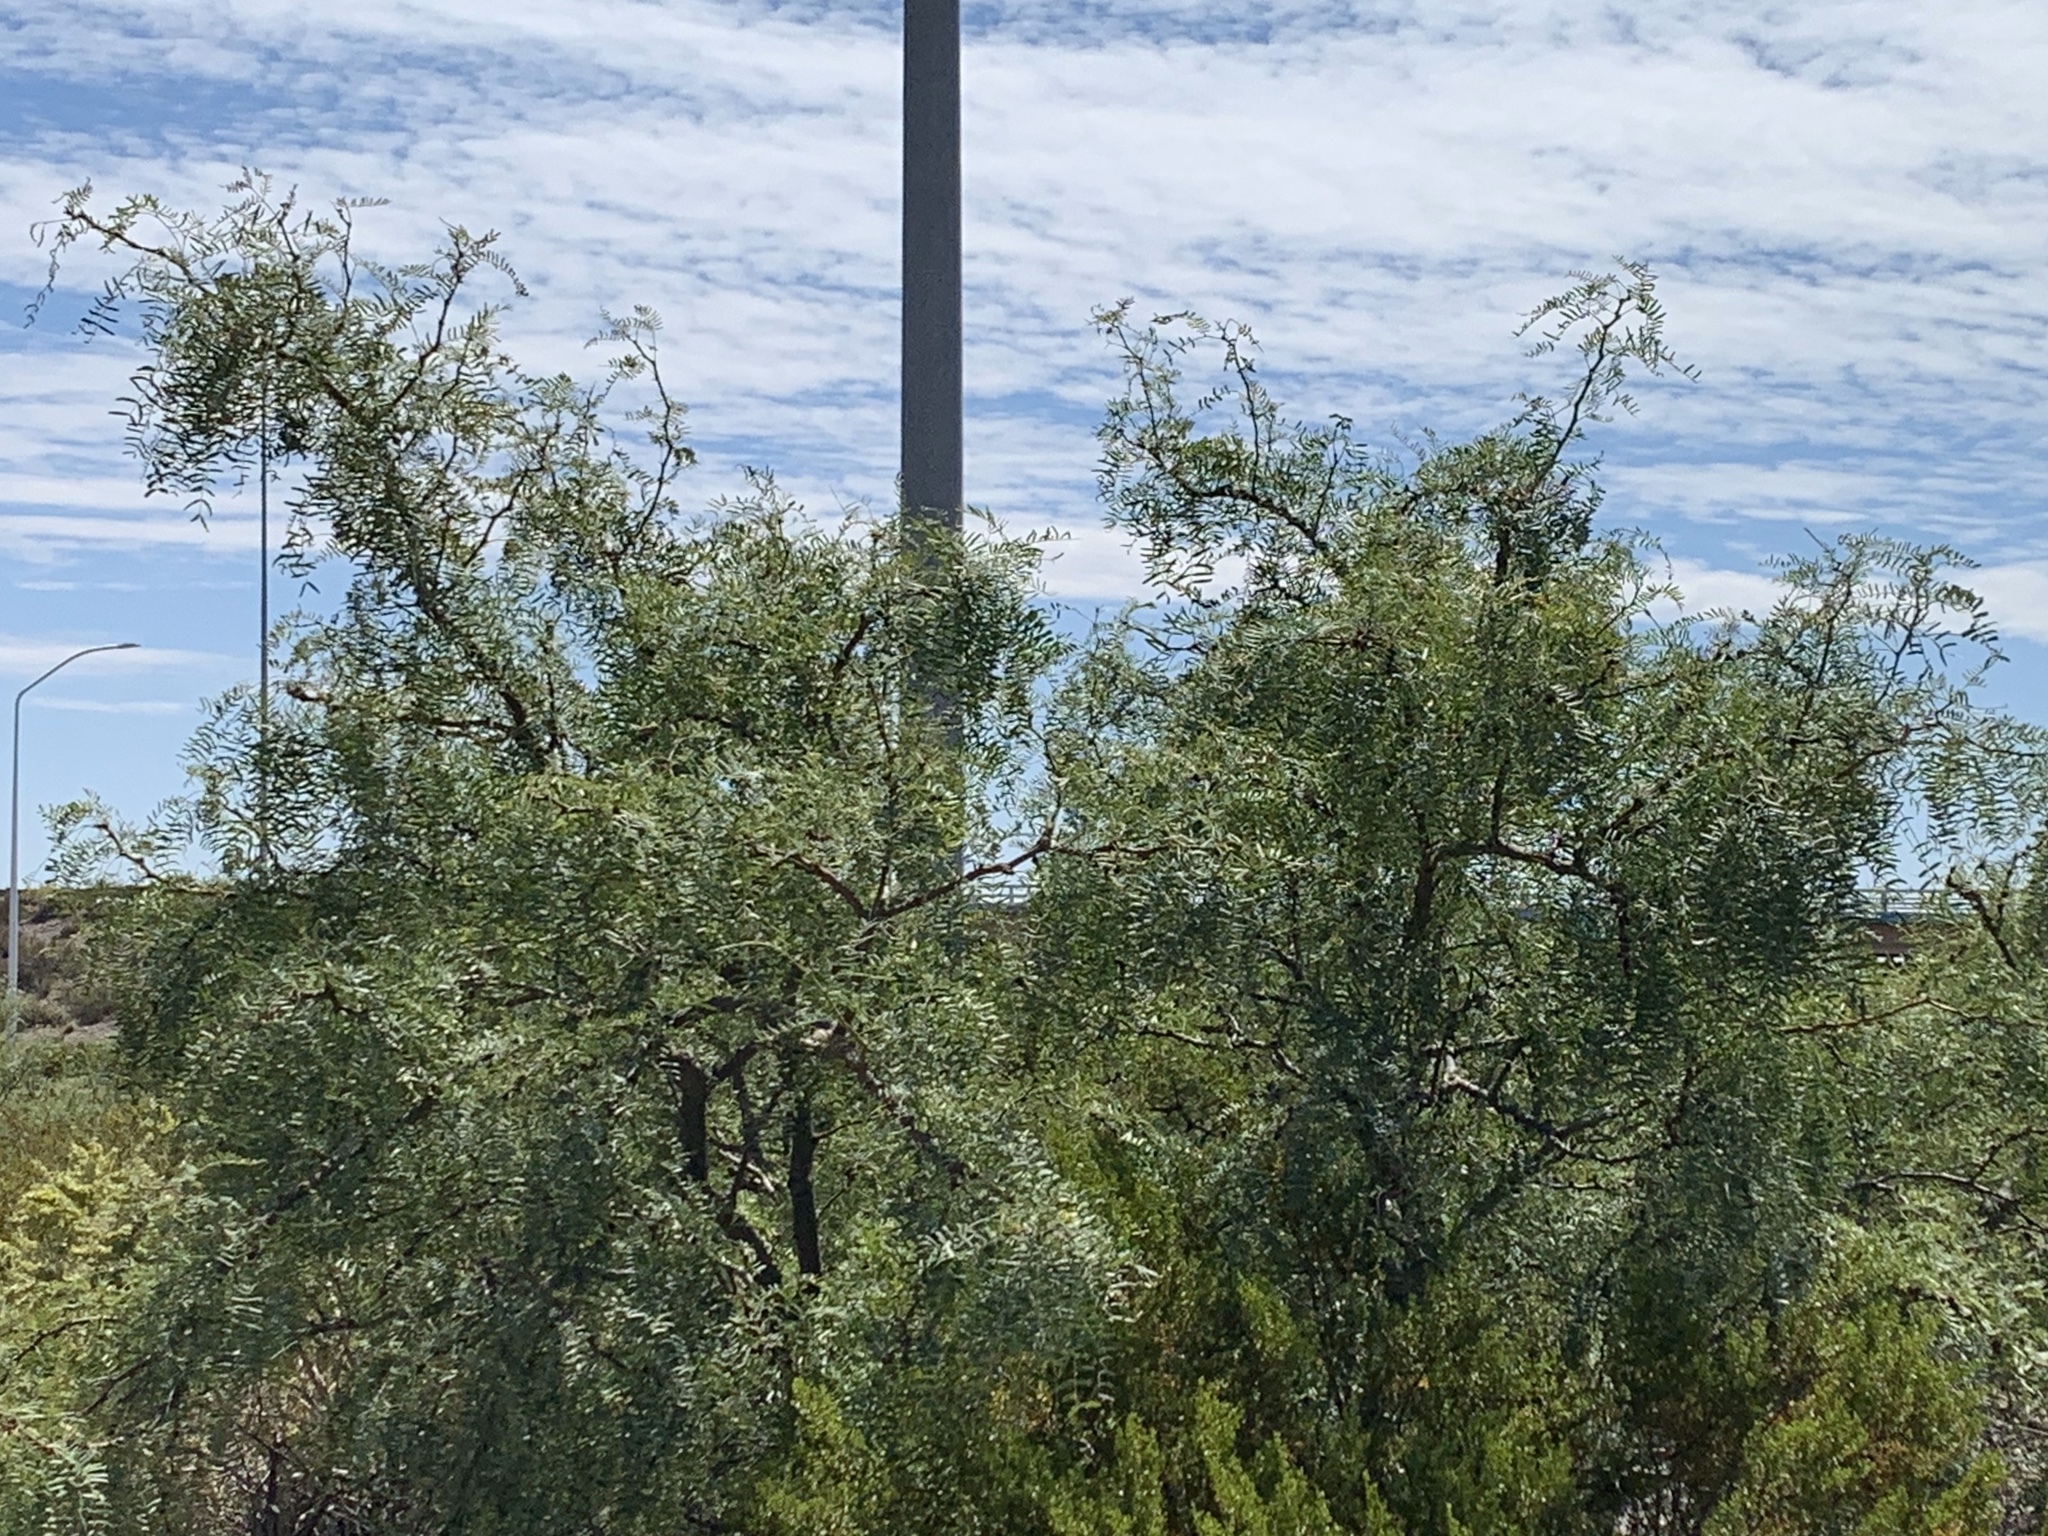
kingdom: Plantae
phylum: Tracheophyta
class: Magnoliopsida
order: Fabales
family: Fabaceae
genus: Prosopis
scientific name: Prosopis glandulosa
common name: Honey mesquite
